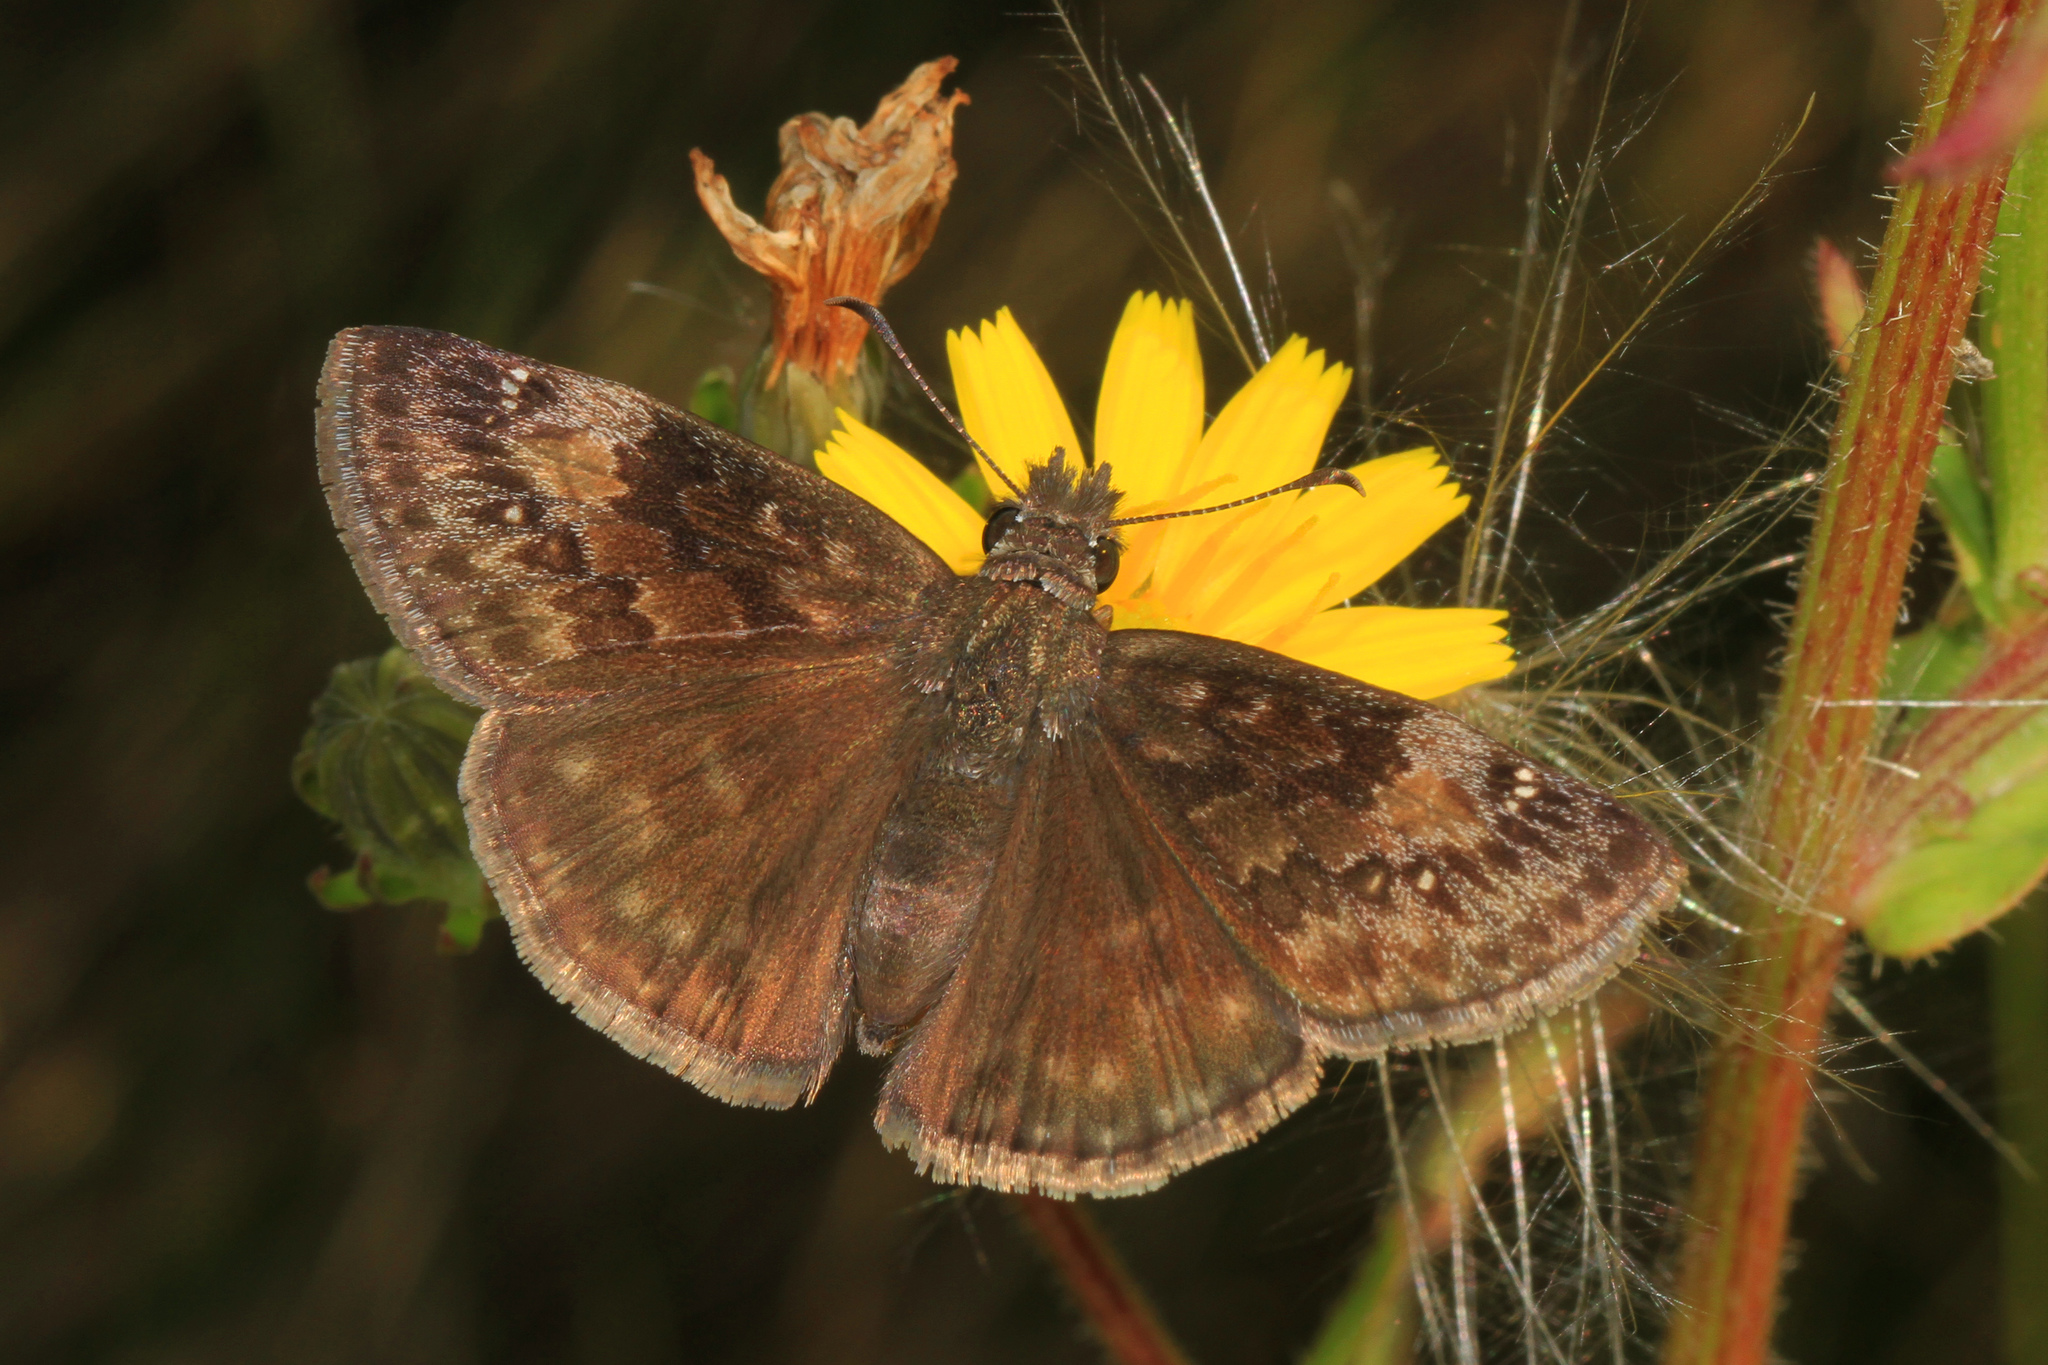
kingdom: Animalia
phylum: Arthropoda
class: Insecta
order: Lepidoptera
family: Hesperiidae
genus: Erynnis
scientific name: Erynnis baptisiae
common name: Wild indigo duskywing
